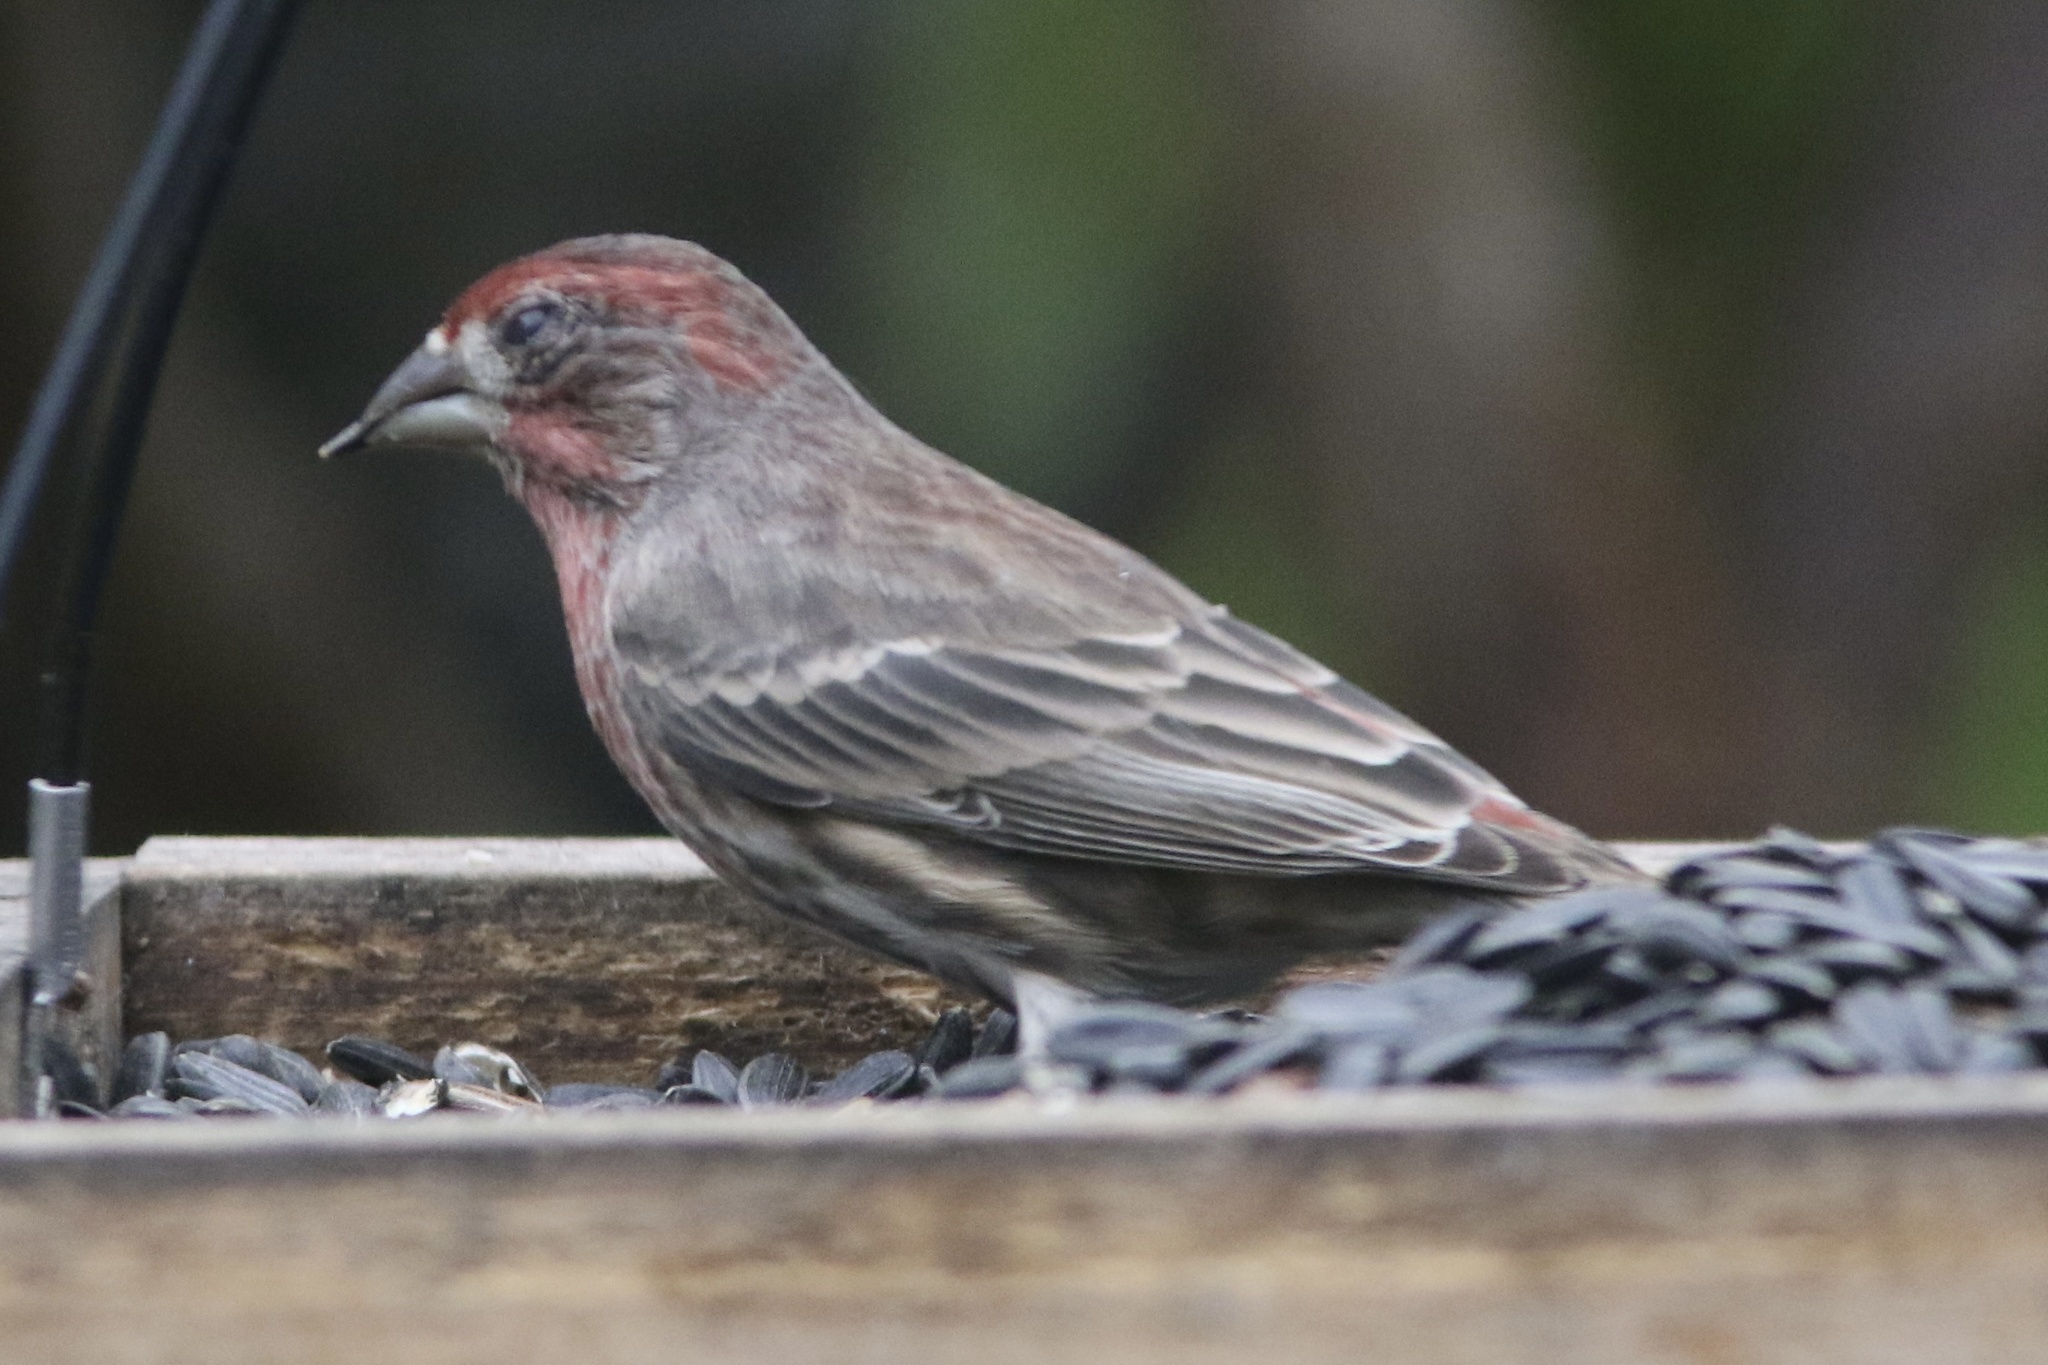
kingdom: Animalia
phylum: Chordata
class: Aves
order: Passeriformes
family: Fringillidae
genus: Haemorhous
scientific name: Haemorhous mexicanus
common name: House finch
